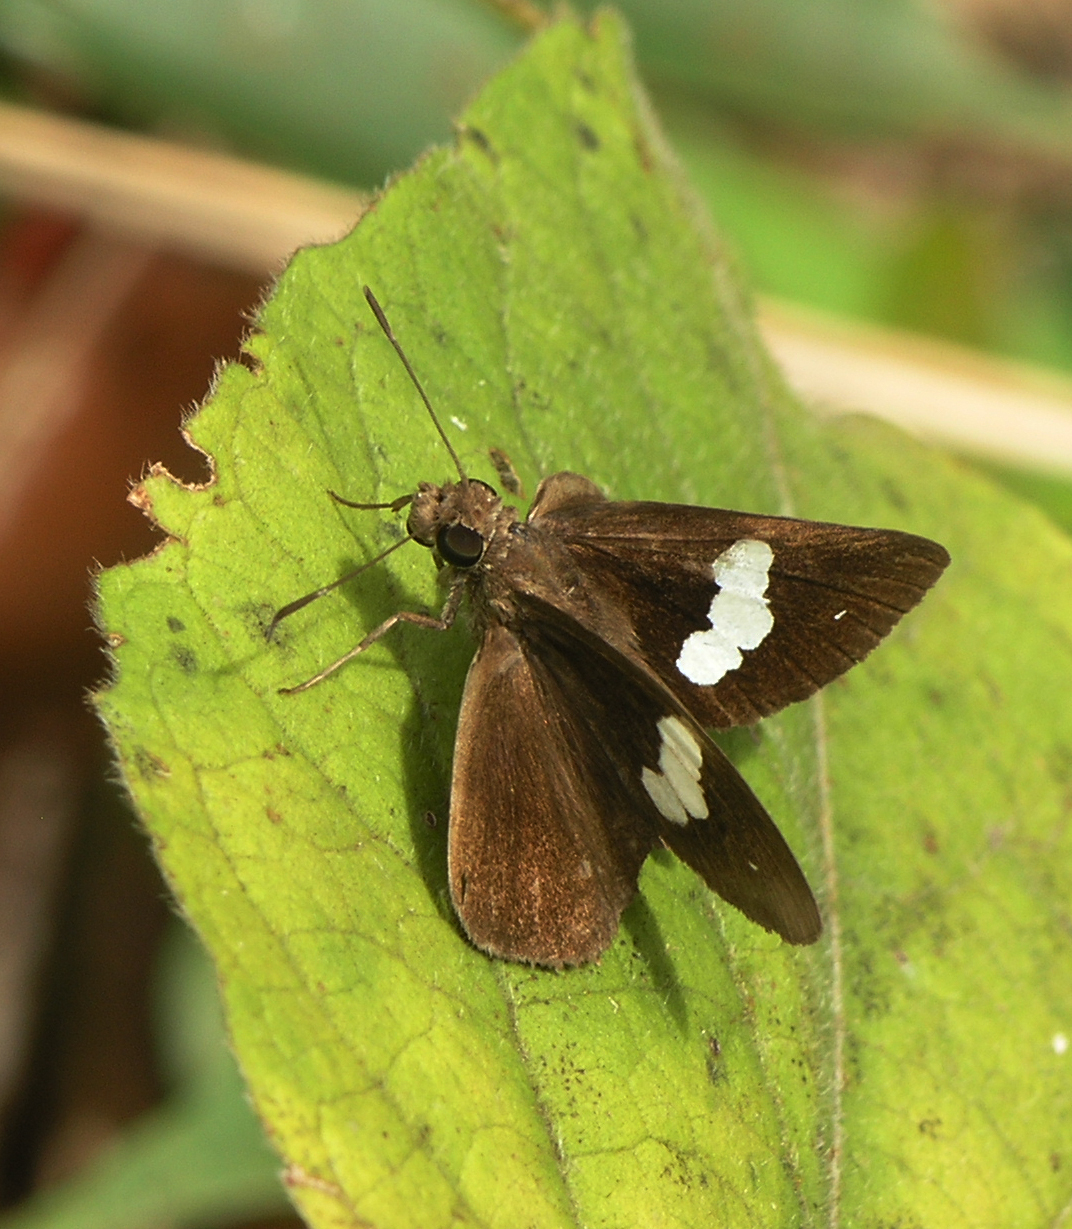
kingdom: Animalia
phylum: Arthropoda
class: Insecta
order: Lepidoptera
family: Hesperiidae
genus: Notocrypta
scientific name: Notocrypta paralysos
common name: Common banded demon
